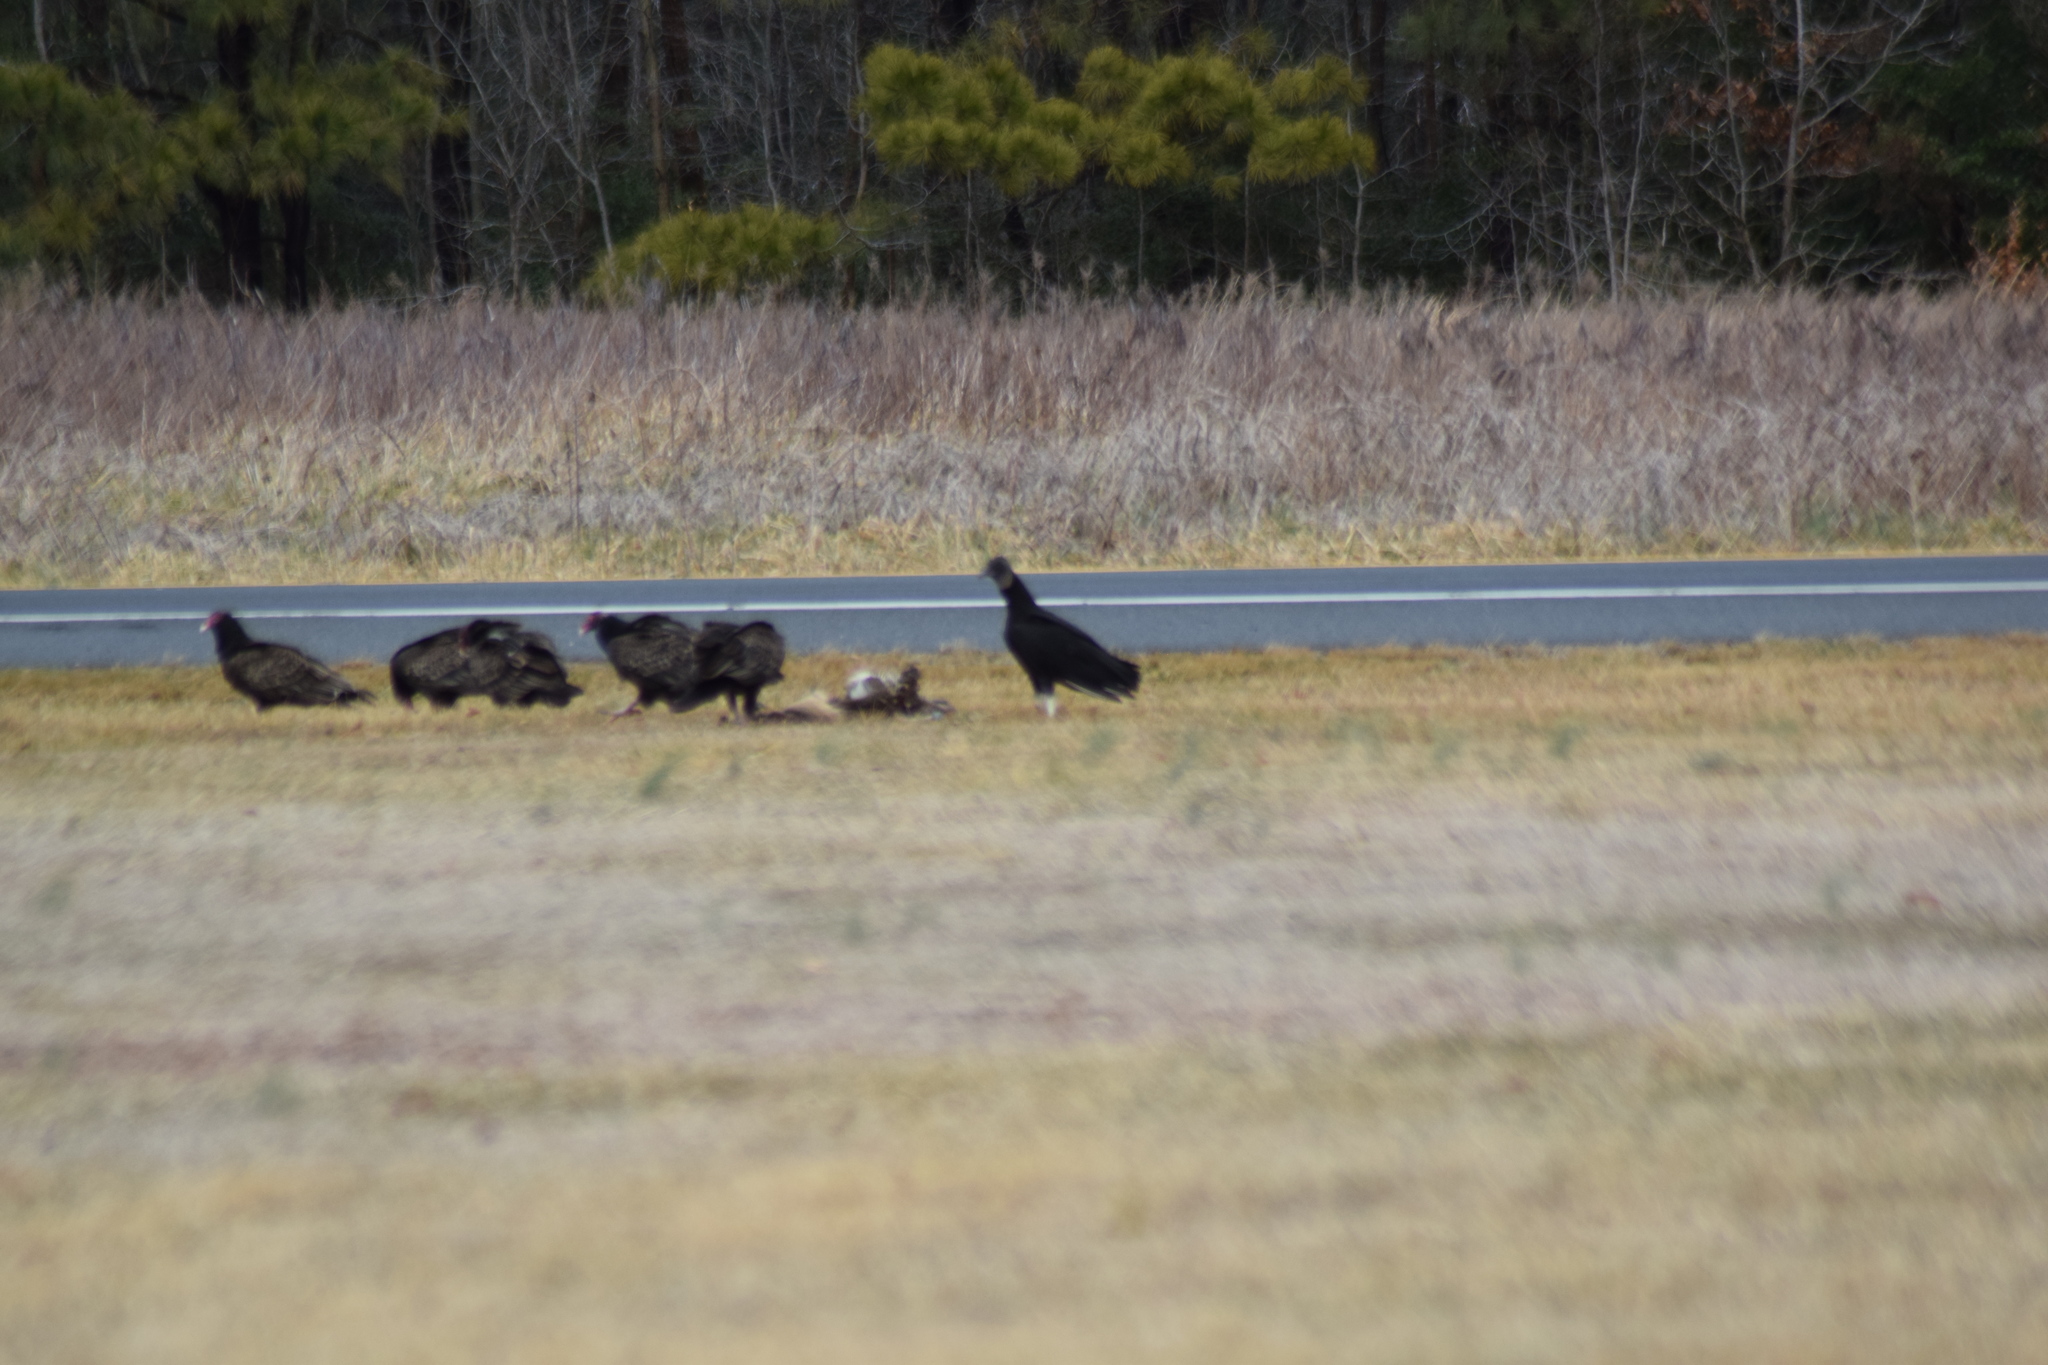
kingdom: Animalia
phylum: Chordata
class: Aves
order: Accipitriformes
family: Cathartidae
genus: Coragyps
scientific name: Coragyps atratus
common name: Black vulture
